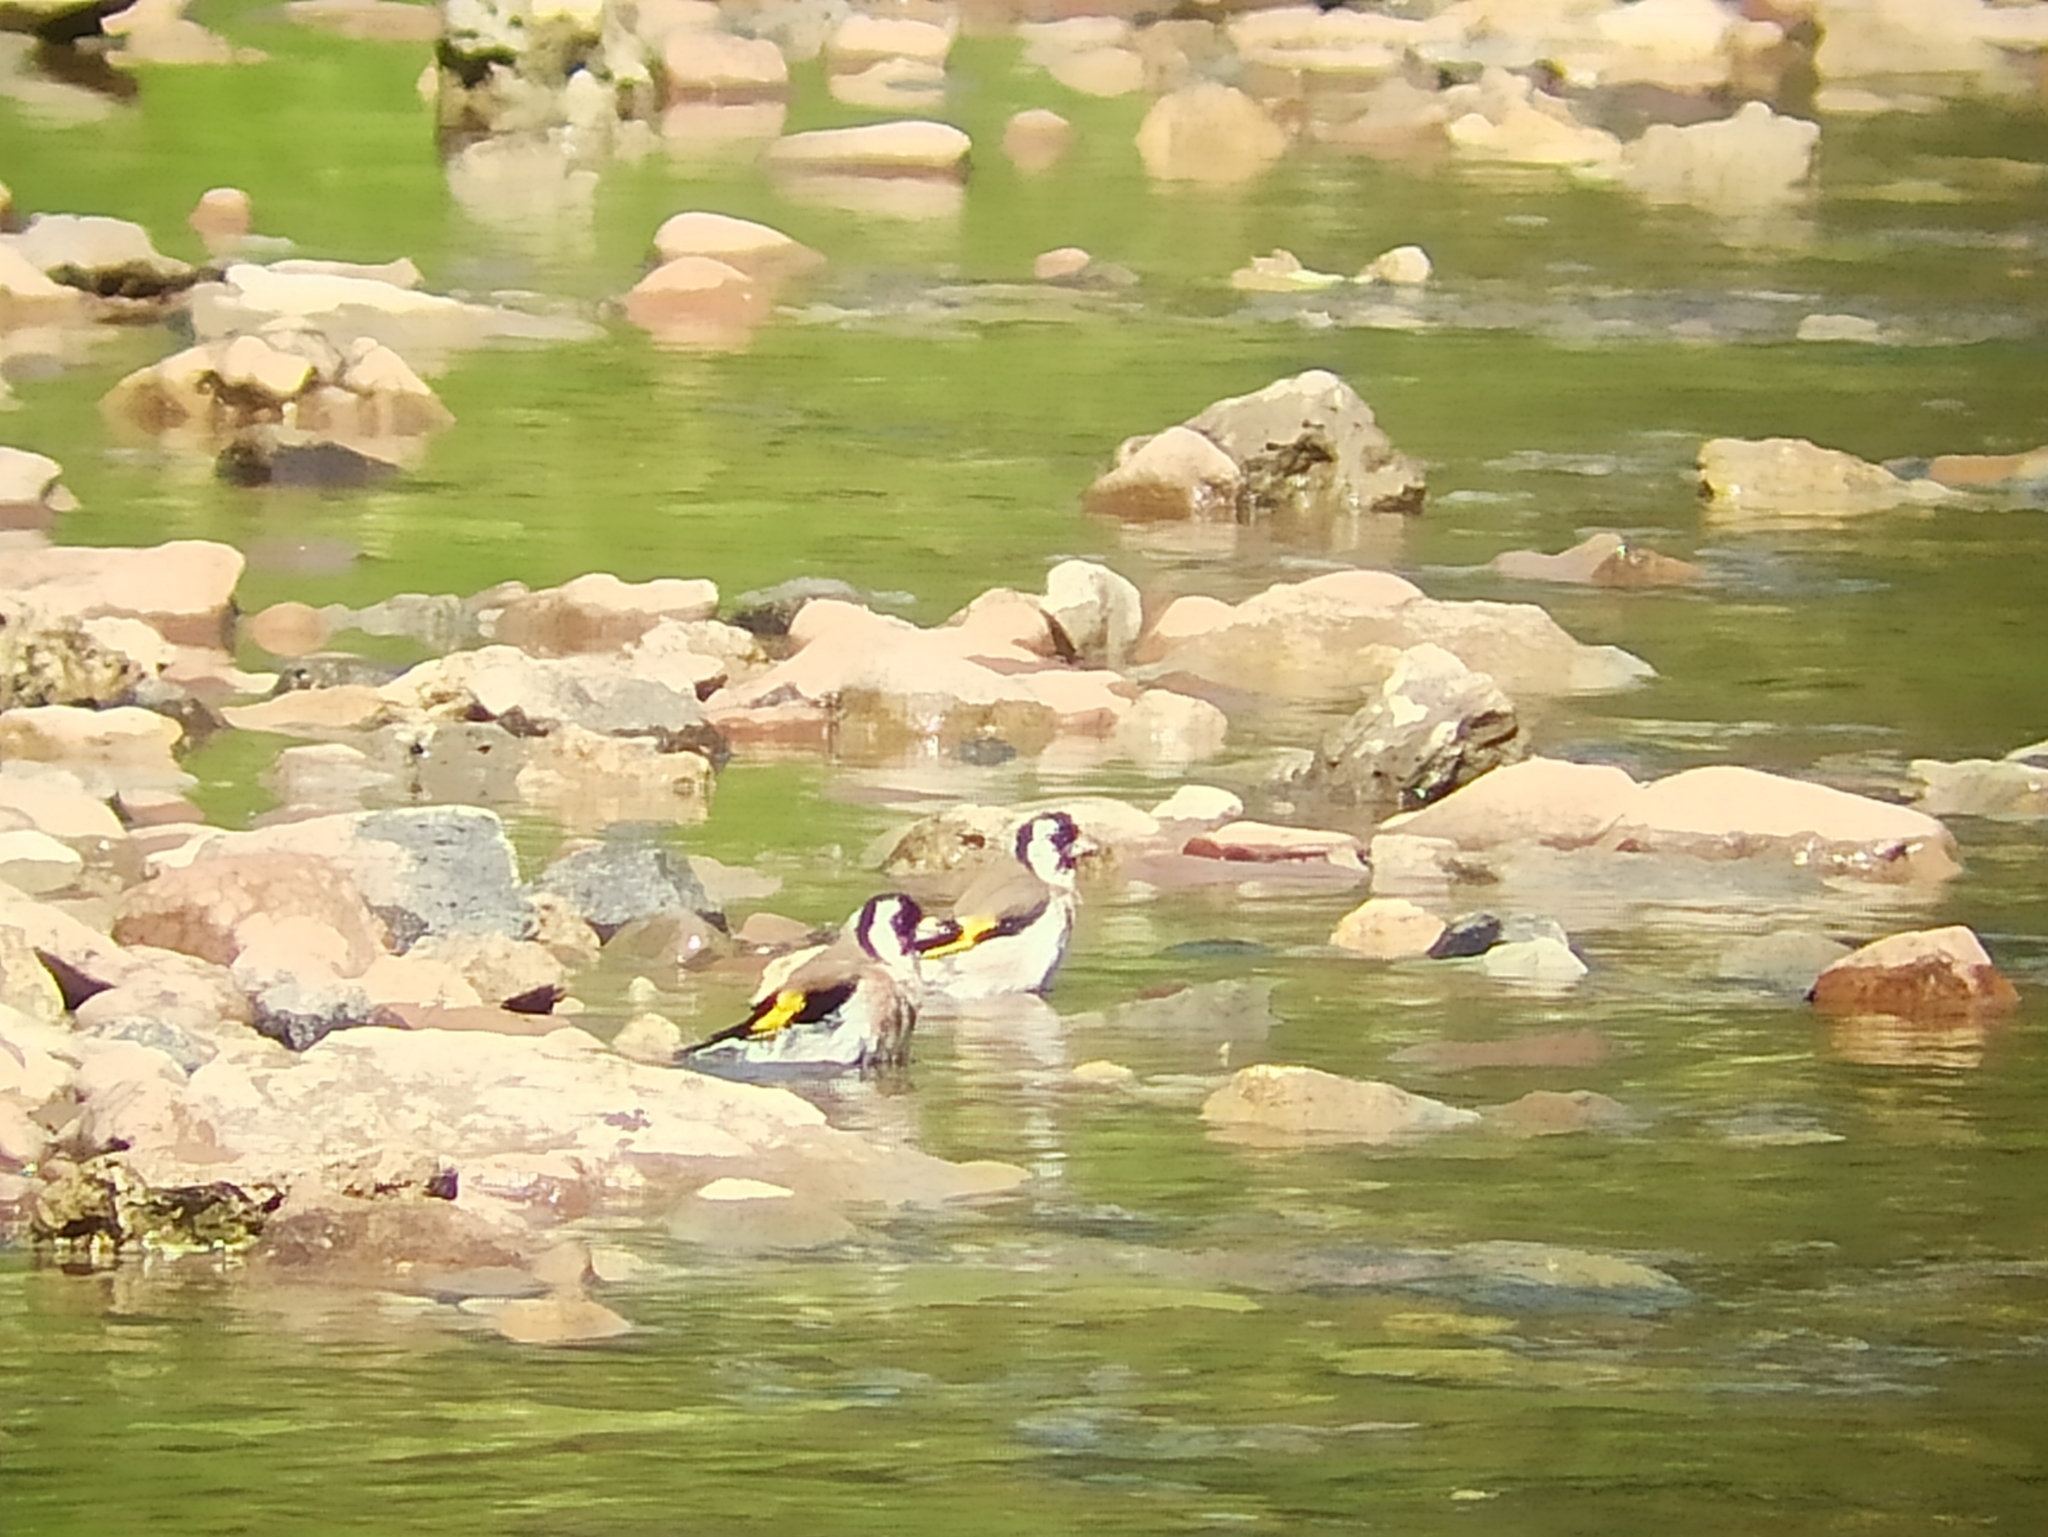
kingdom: Animalia
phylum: Chordata
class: Aves
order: Passeriformes
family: Fringillidae
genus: Carduelis
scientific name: Carduelis carduelis
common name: European goldfinch
